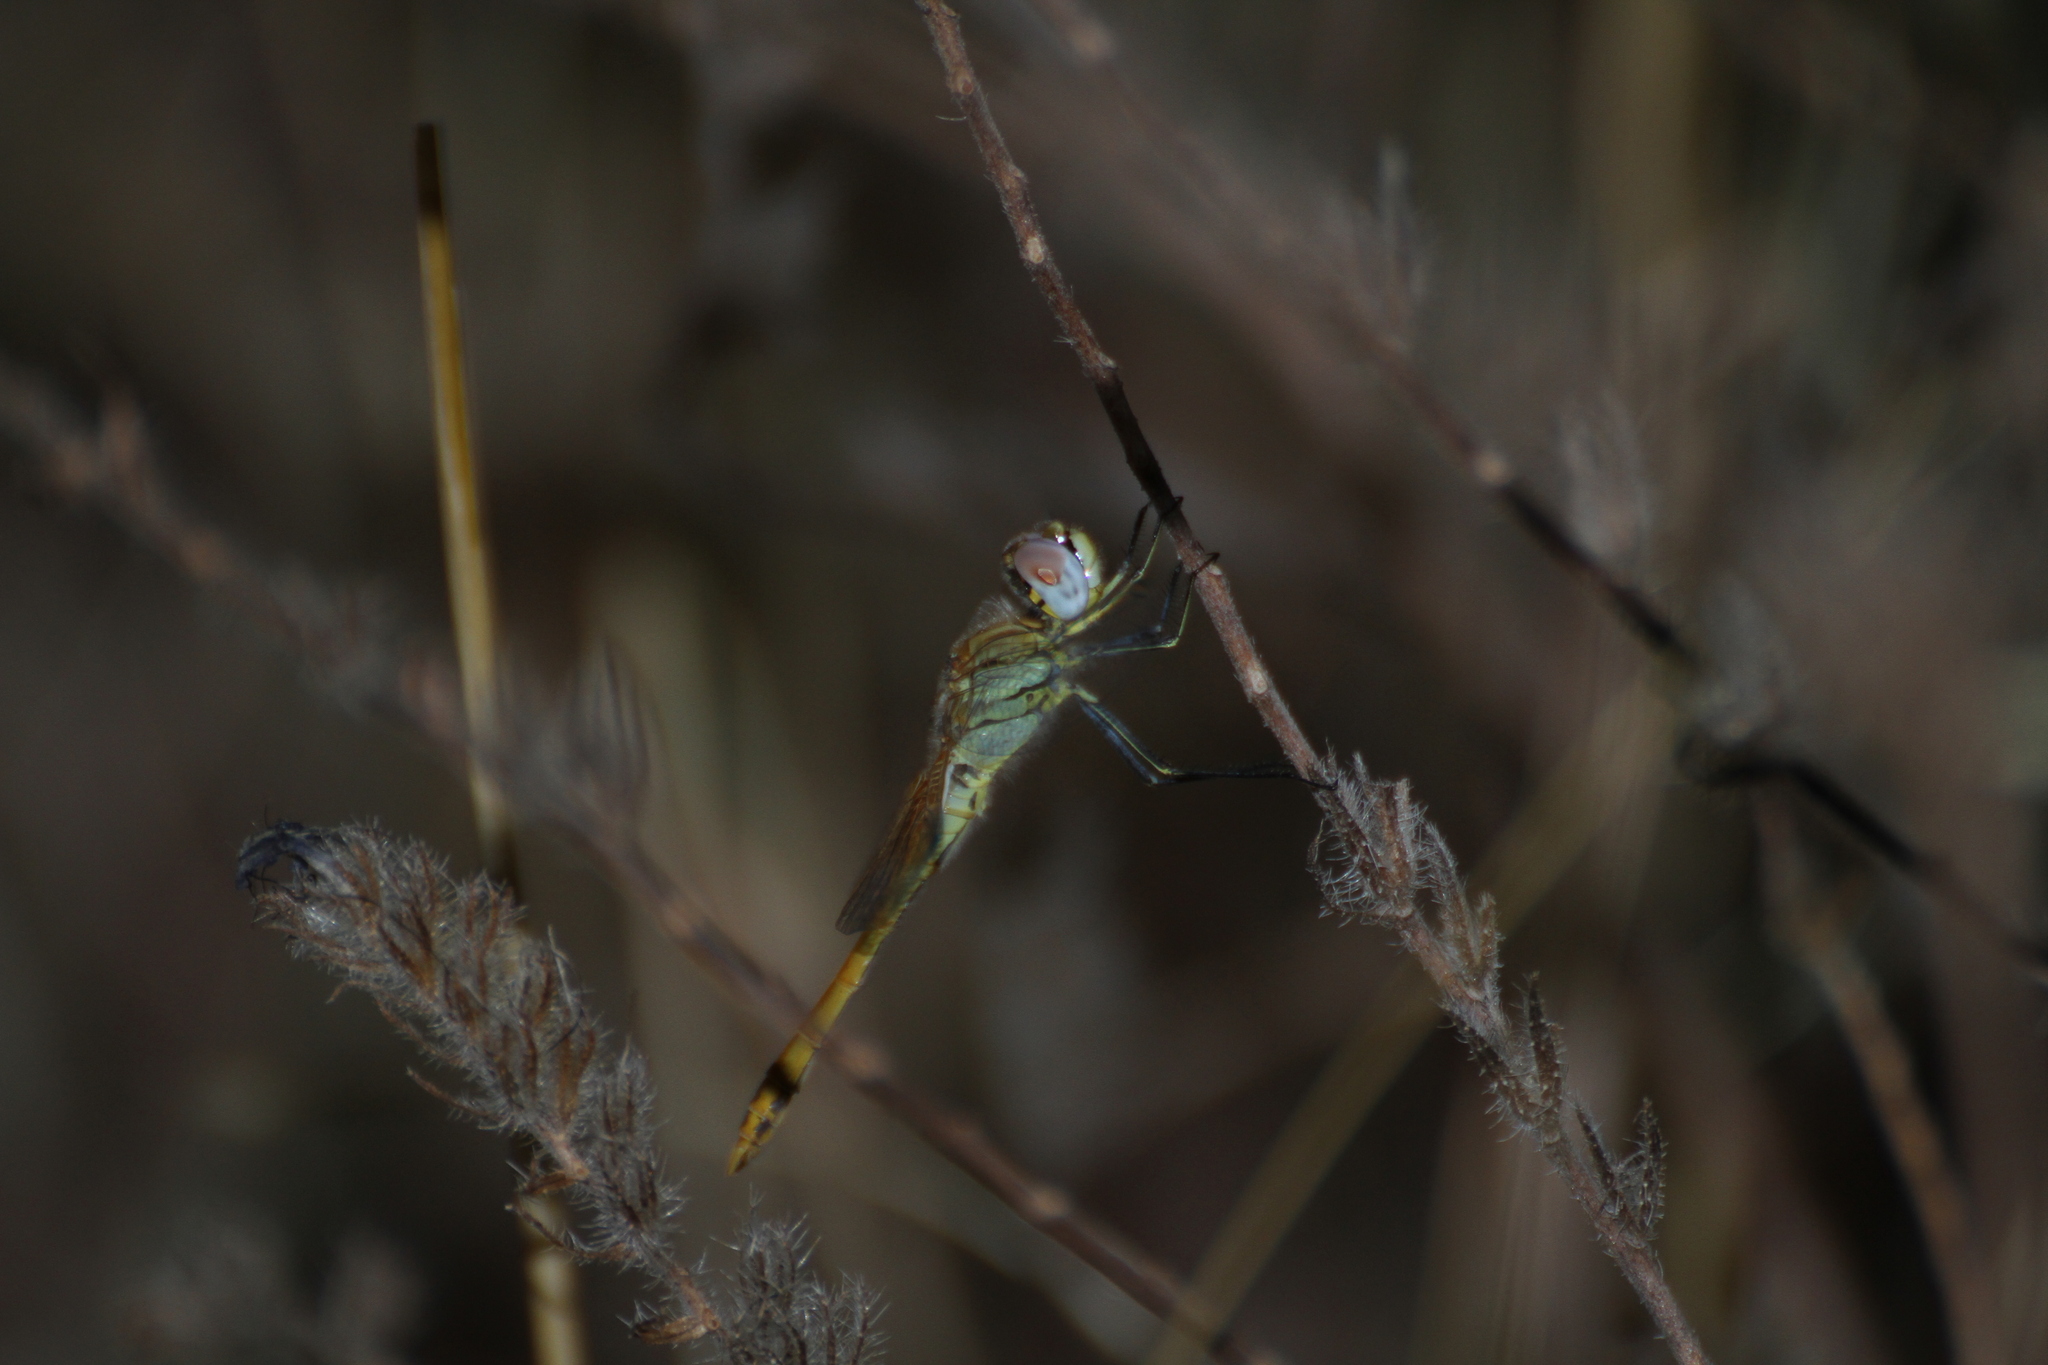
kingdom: Animalia
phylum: Arthropoda
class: Insecta
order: Odonata
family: Libellulidae
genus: Sympetrum
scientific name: Sympetrum fonscolombii
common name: Red-veined darter
